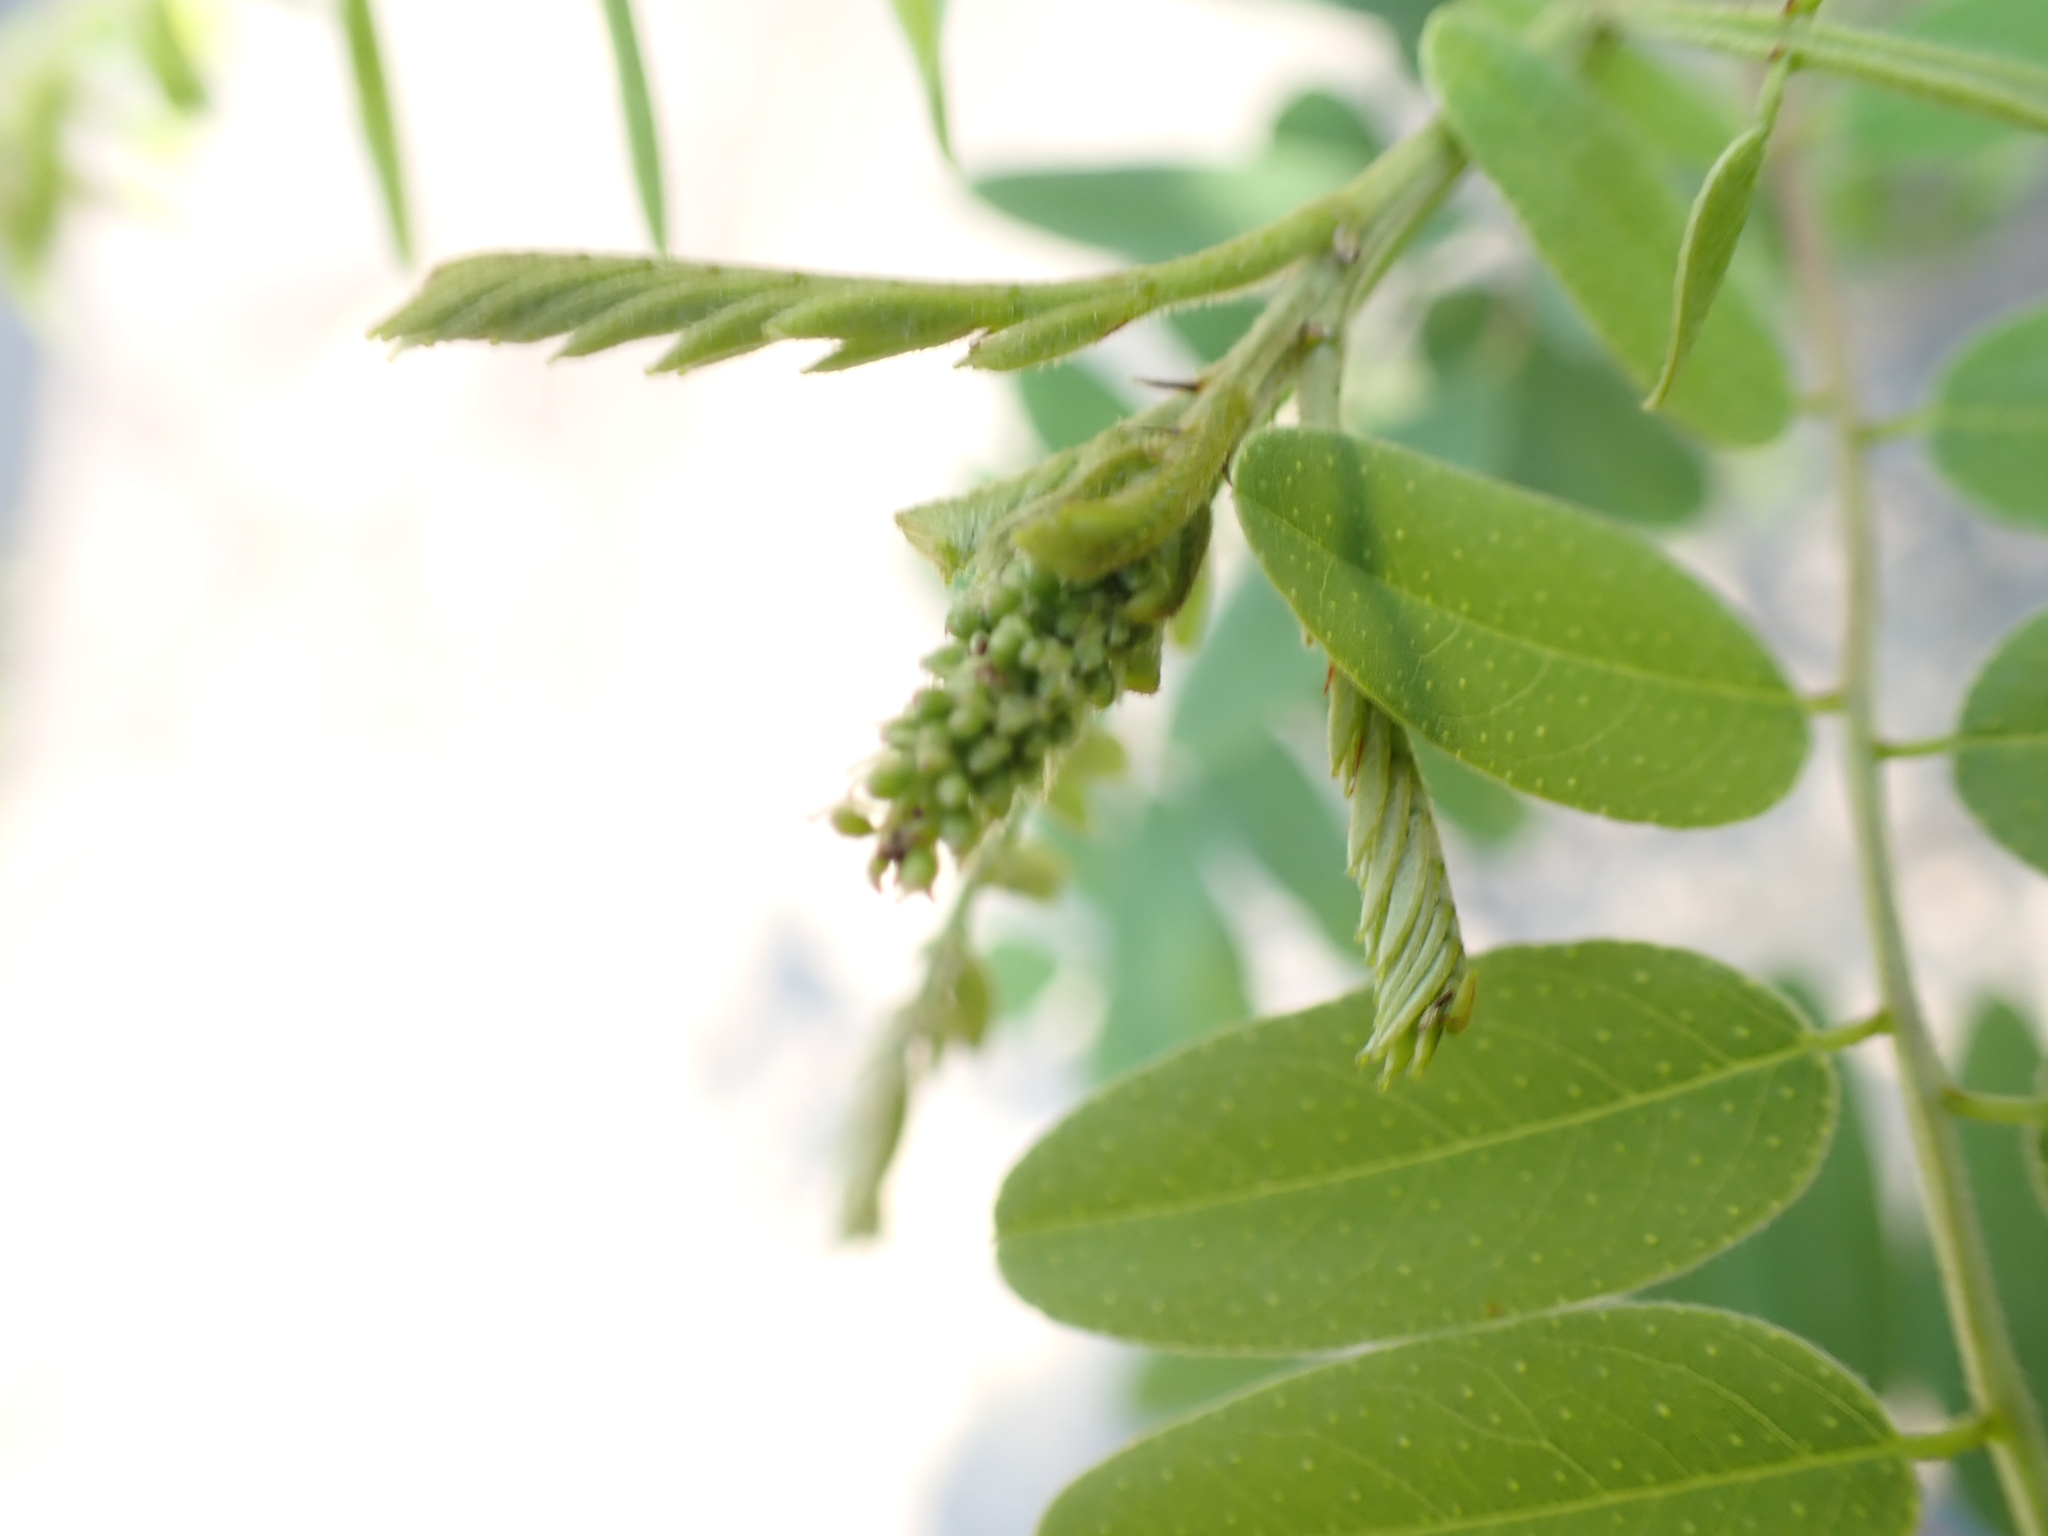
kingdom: Plantae
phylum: Tracheophyta
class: Magnoliopsida
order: Fabales
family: Fabaceae
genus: Amorpha
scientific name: Amorpha fruticosa
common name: False indigo
